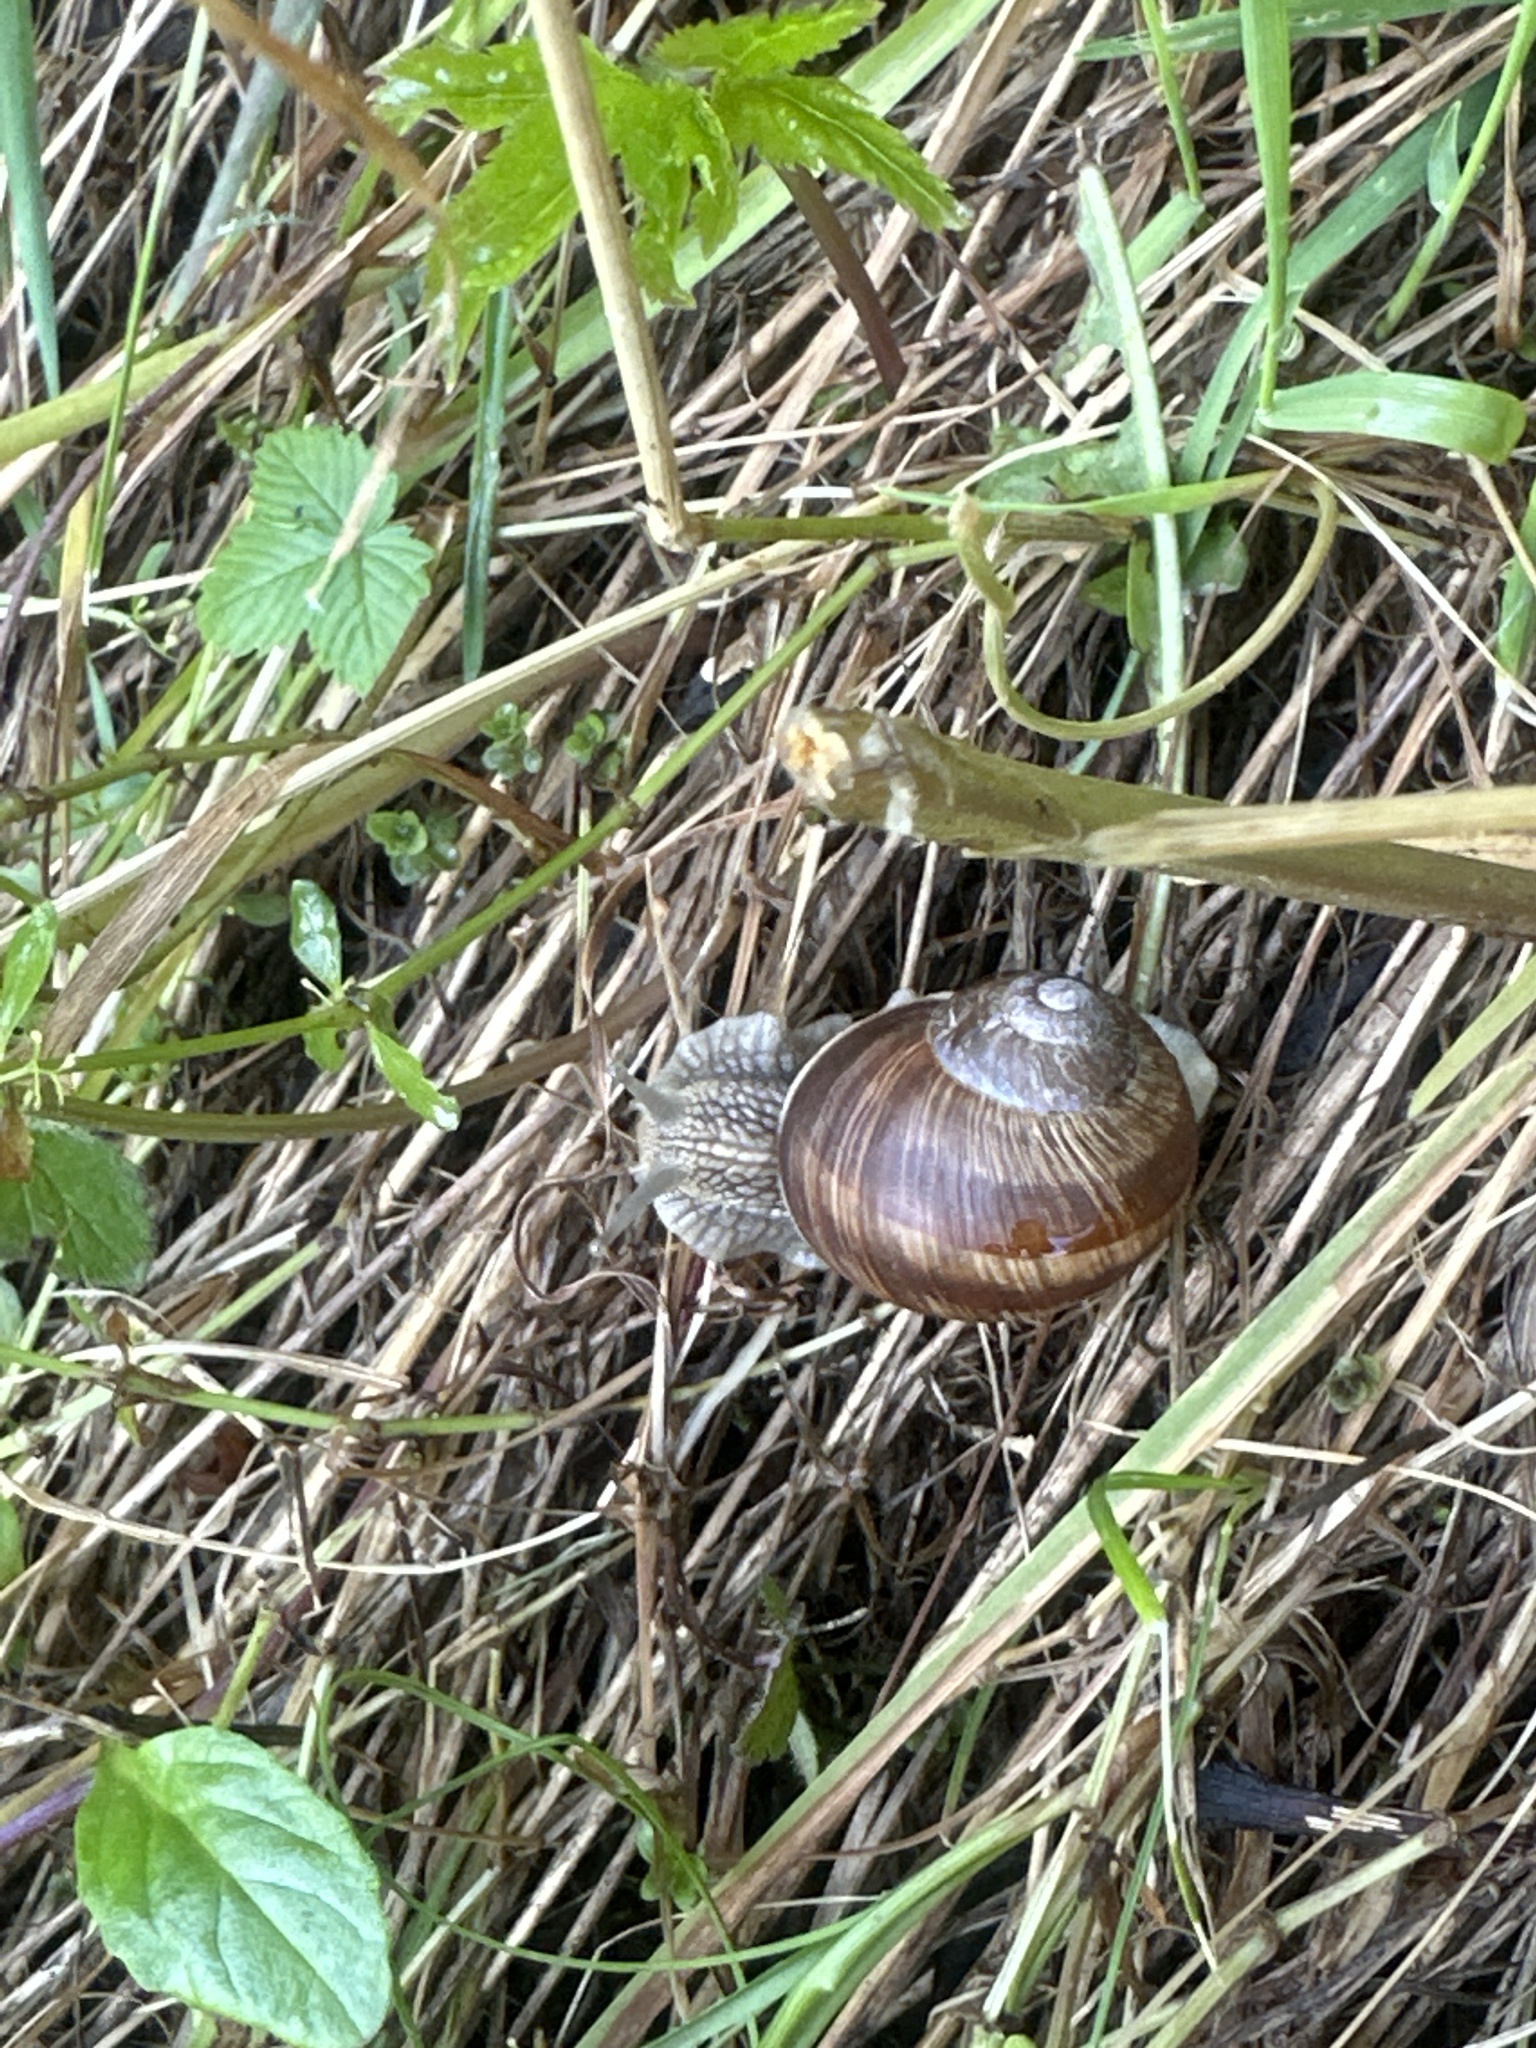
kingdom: Animalia
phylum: Mollusca
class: Gastropoda
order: Stylommatophora
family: Helicidae
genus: Helix
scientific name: Helix pomatia
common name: Roman snail
